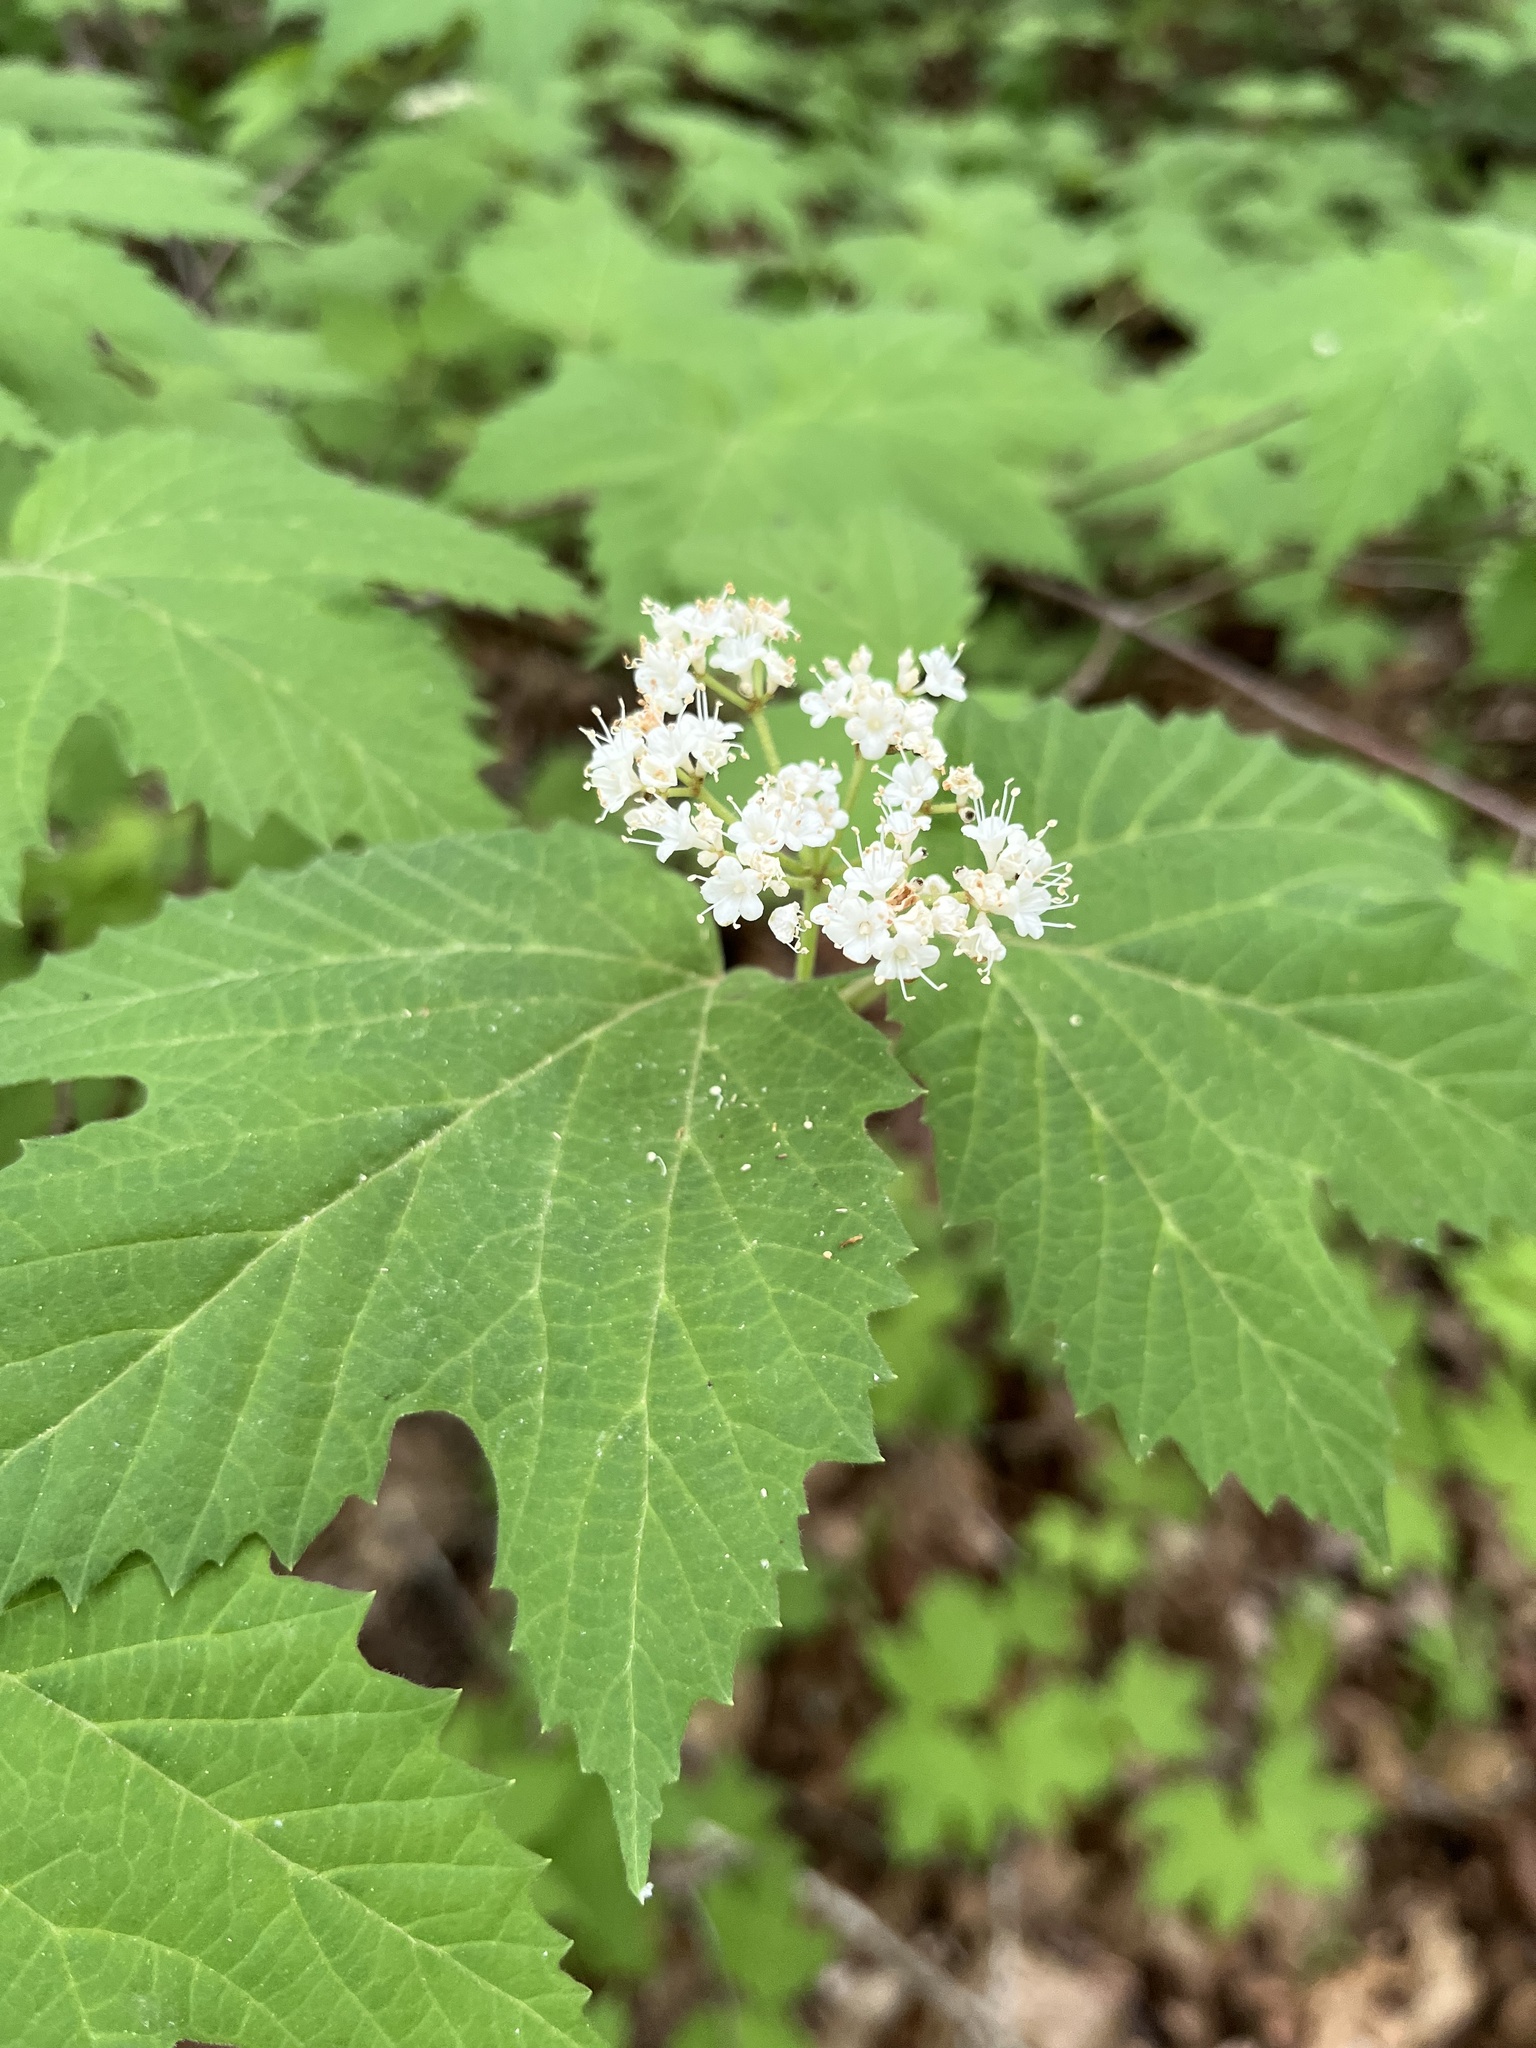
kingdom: Plantae
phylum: Tracheophyta
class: Magnoliopsida
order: Dipsacales
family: Viburnaceae
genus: Viburnum
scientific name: Viburnum acerifolium
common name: Dockmackie
